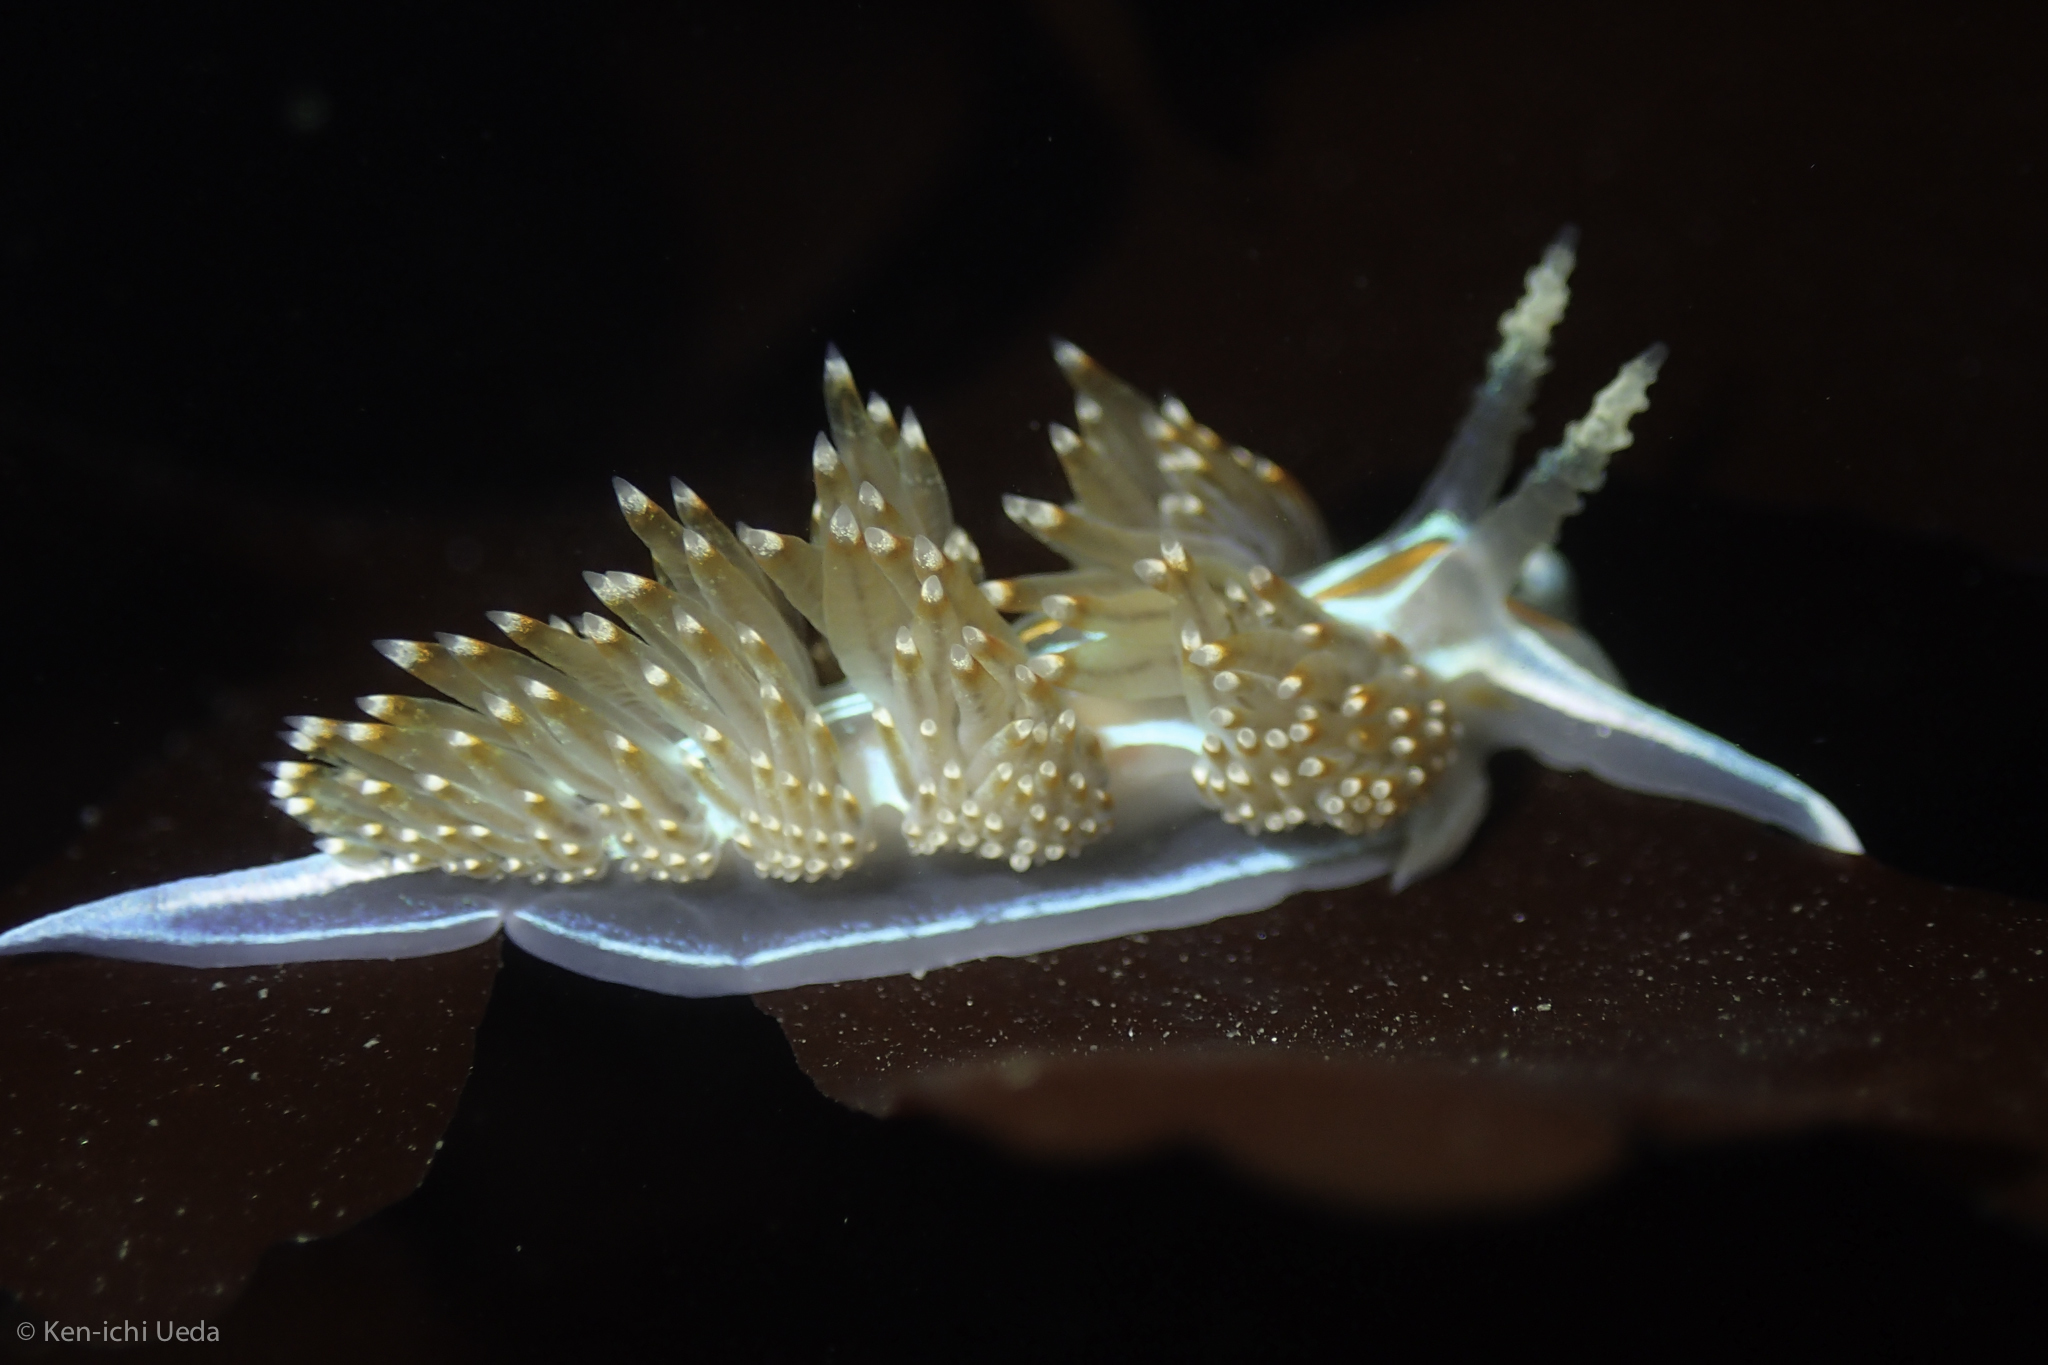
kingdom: Animalia
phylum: Mollusca
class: Gastropoda
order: Nudibranchia
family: Myrrhinidae
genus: Hermissenda
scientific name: Hermissenda opalescens
